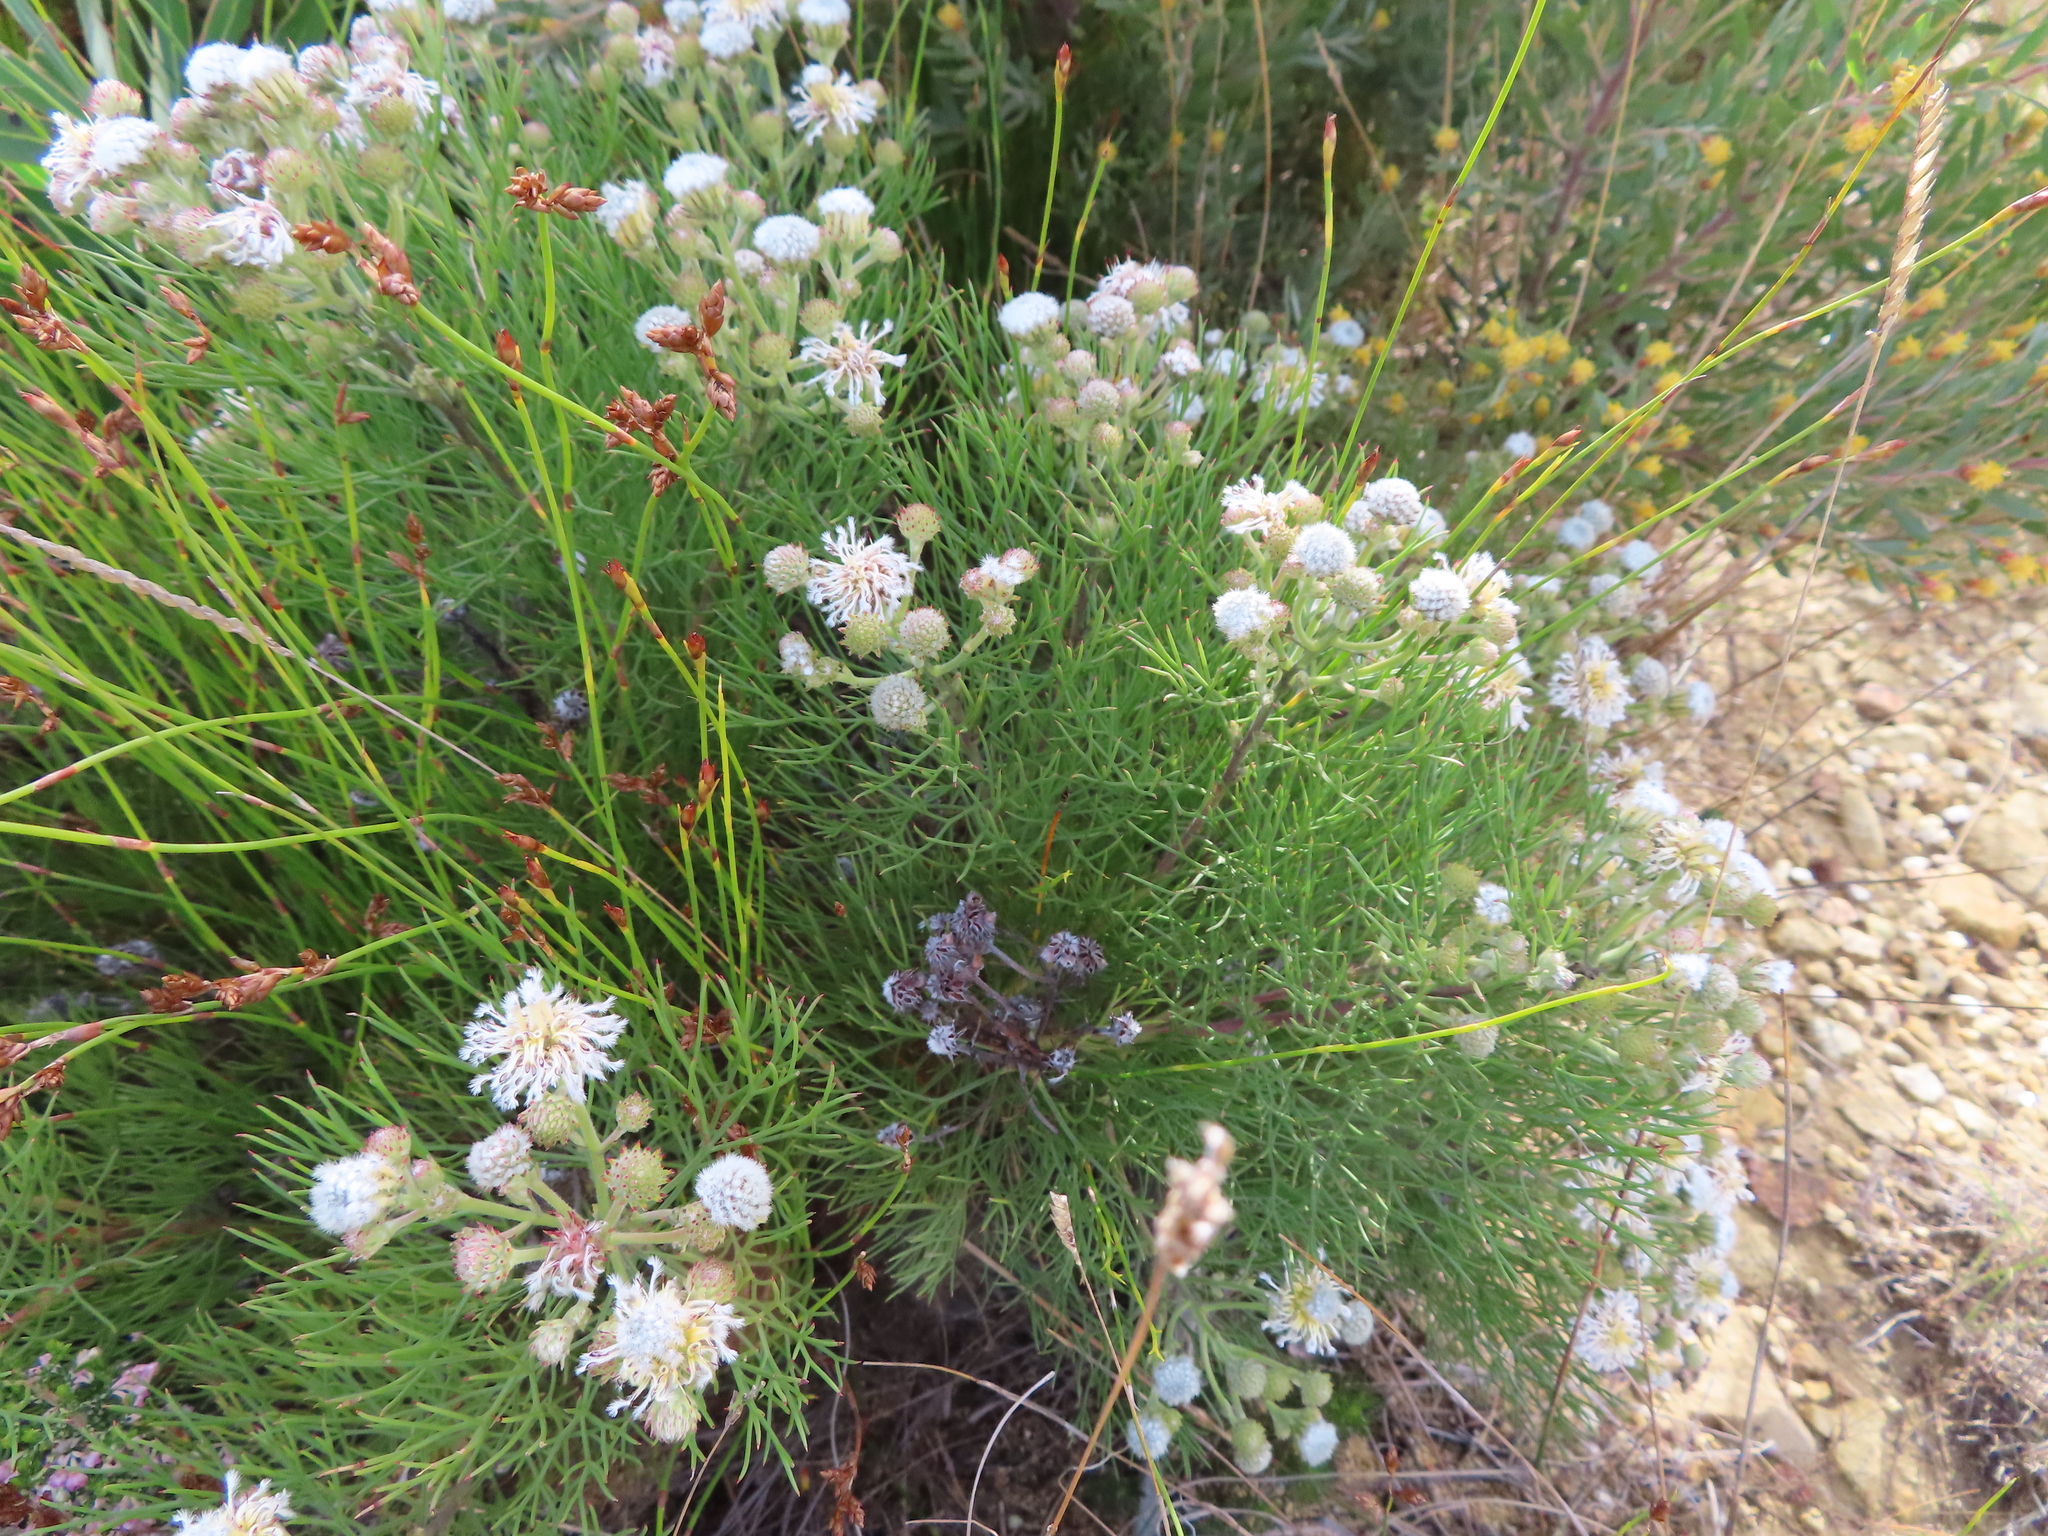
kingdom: Plantae
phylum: Tracheophyta
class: Magnoliopsida
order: Proteales
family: Proteaceae
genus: Serruria
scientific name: Serruria kraussii
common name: Snowball spiderhead
